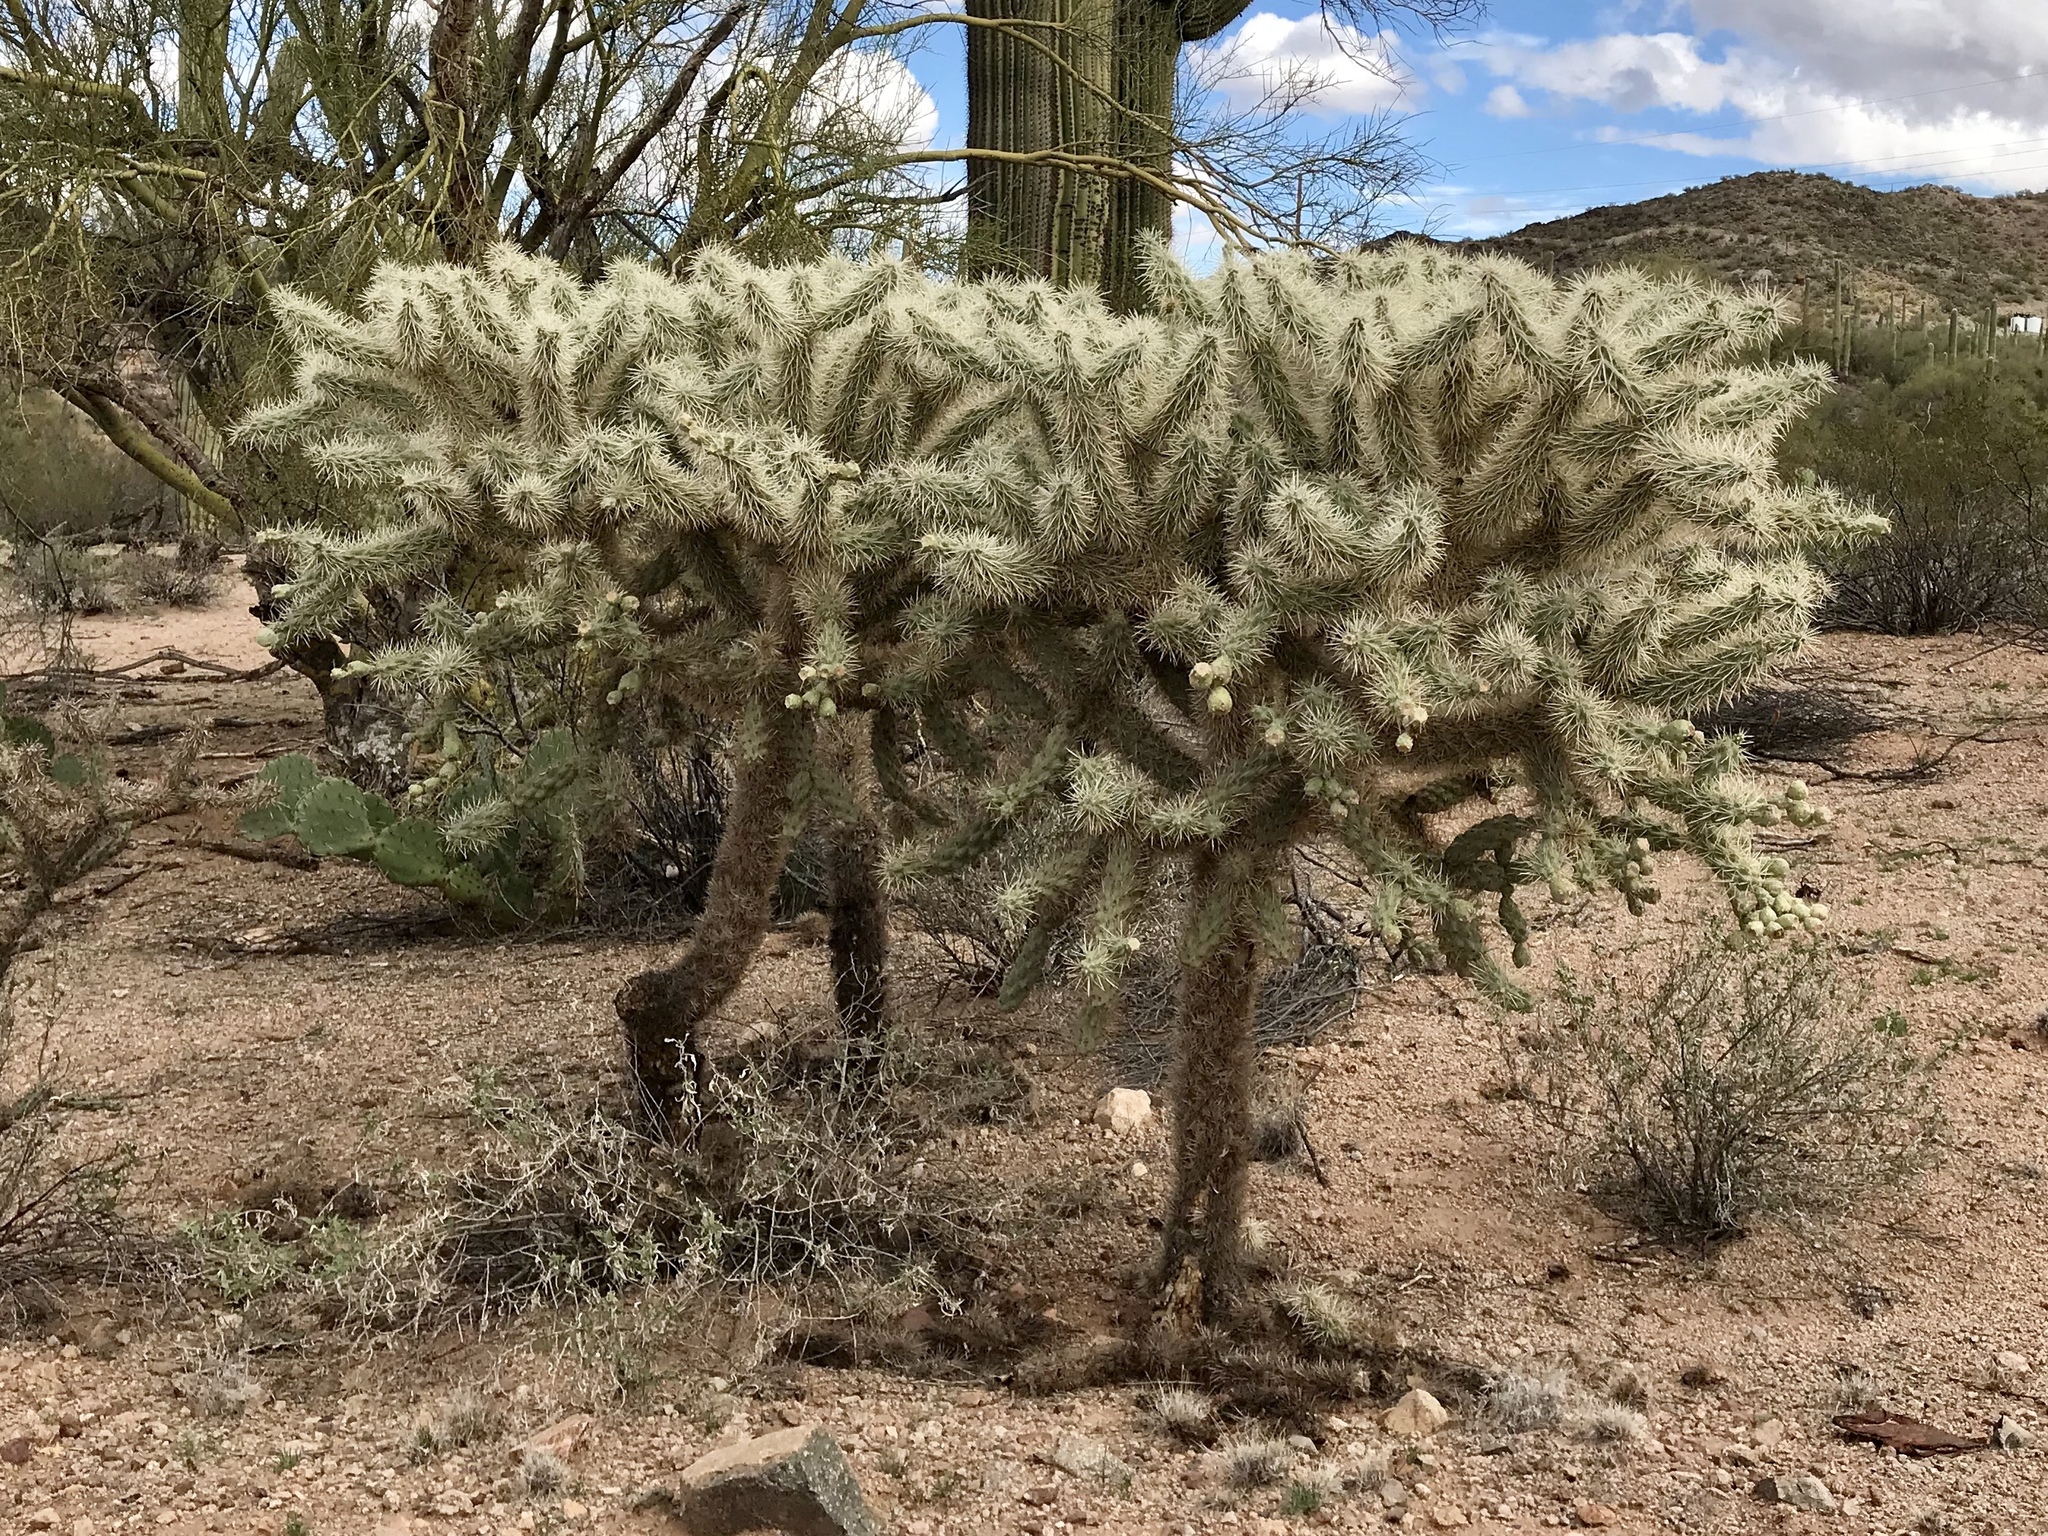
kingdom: Plantae
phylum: Tracheophyta
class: Magnoliopsida
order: Caryophyllales
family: Cactaceae
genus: Cylindropuntia
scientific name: Cylindropuntia fulgida
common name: Jumping cholla
